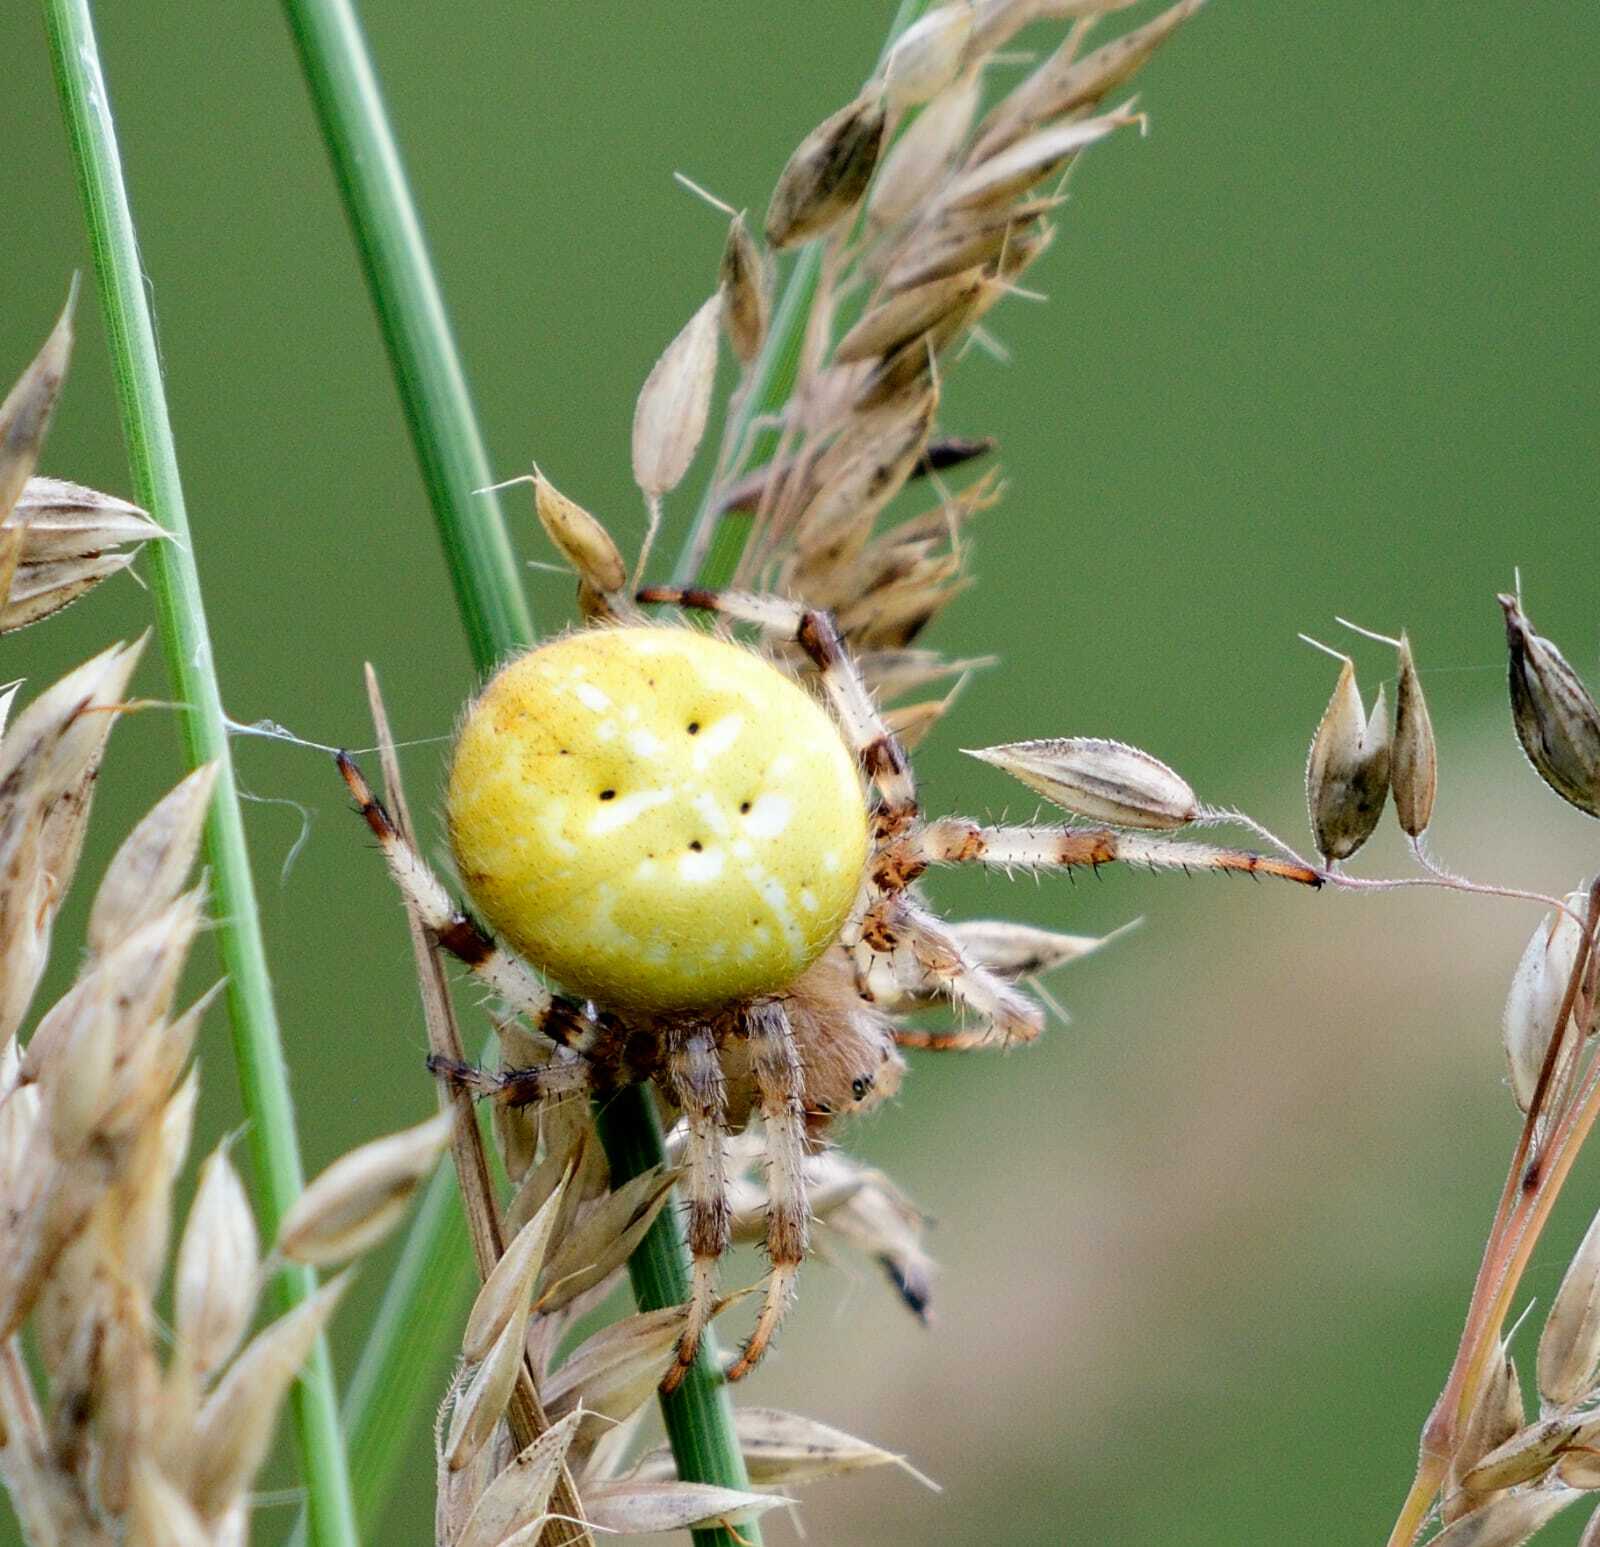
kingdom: Animalia
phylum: Arthropoda
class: Arachnida
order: Araneae
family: Araneidae
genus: Araneus
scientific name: Araneus quadratus
